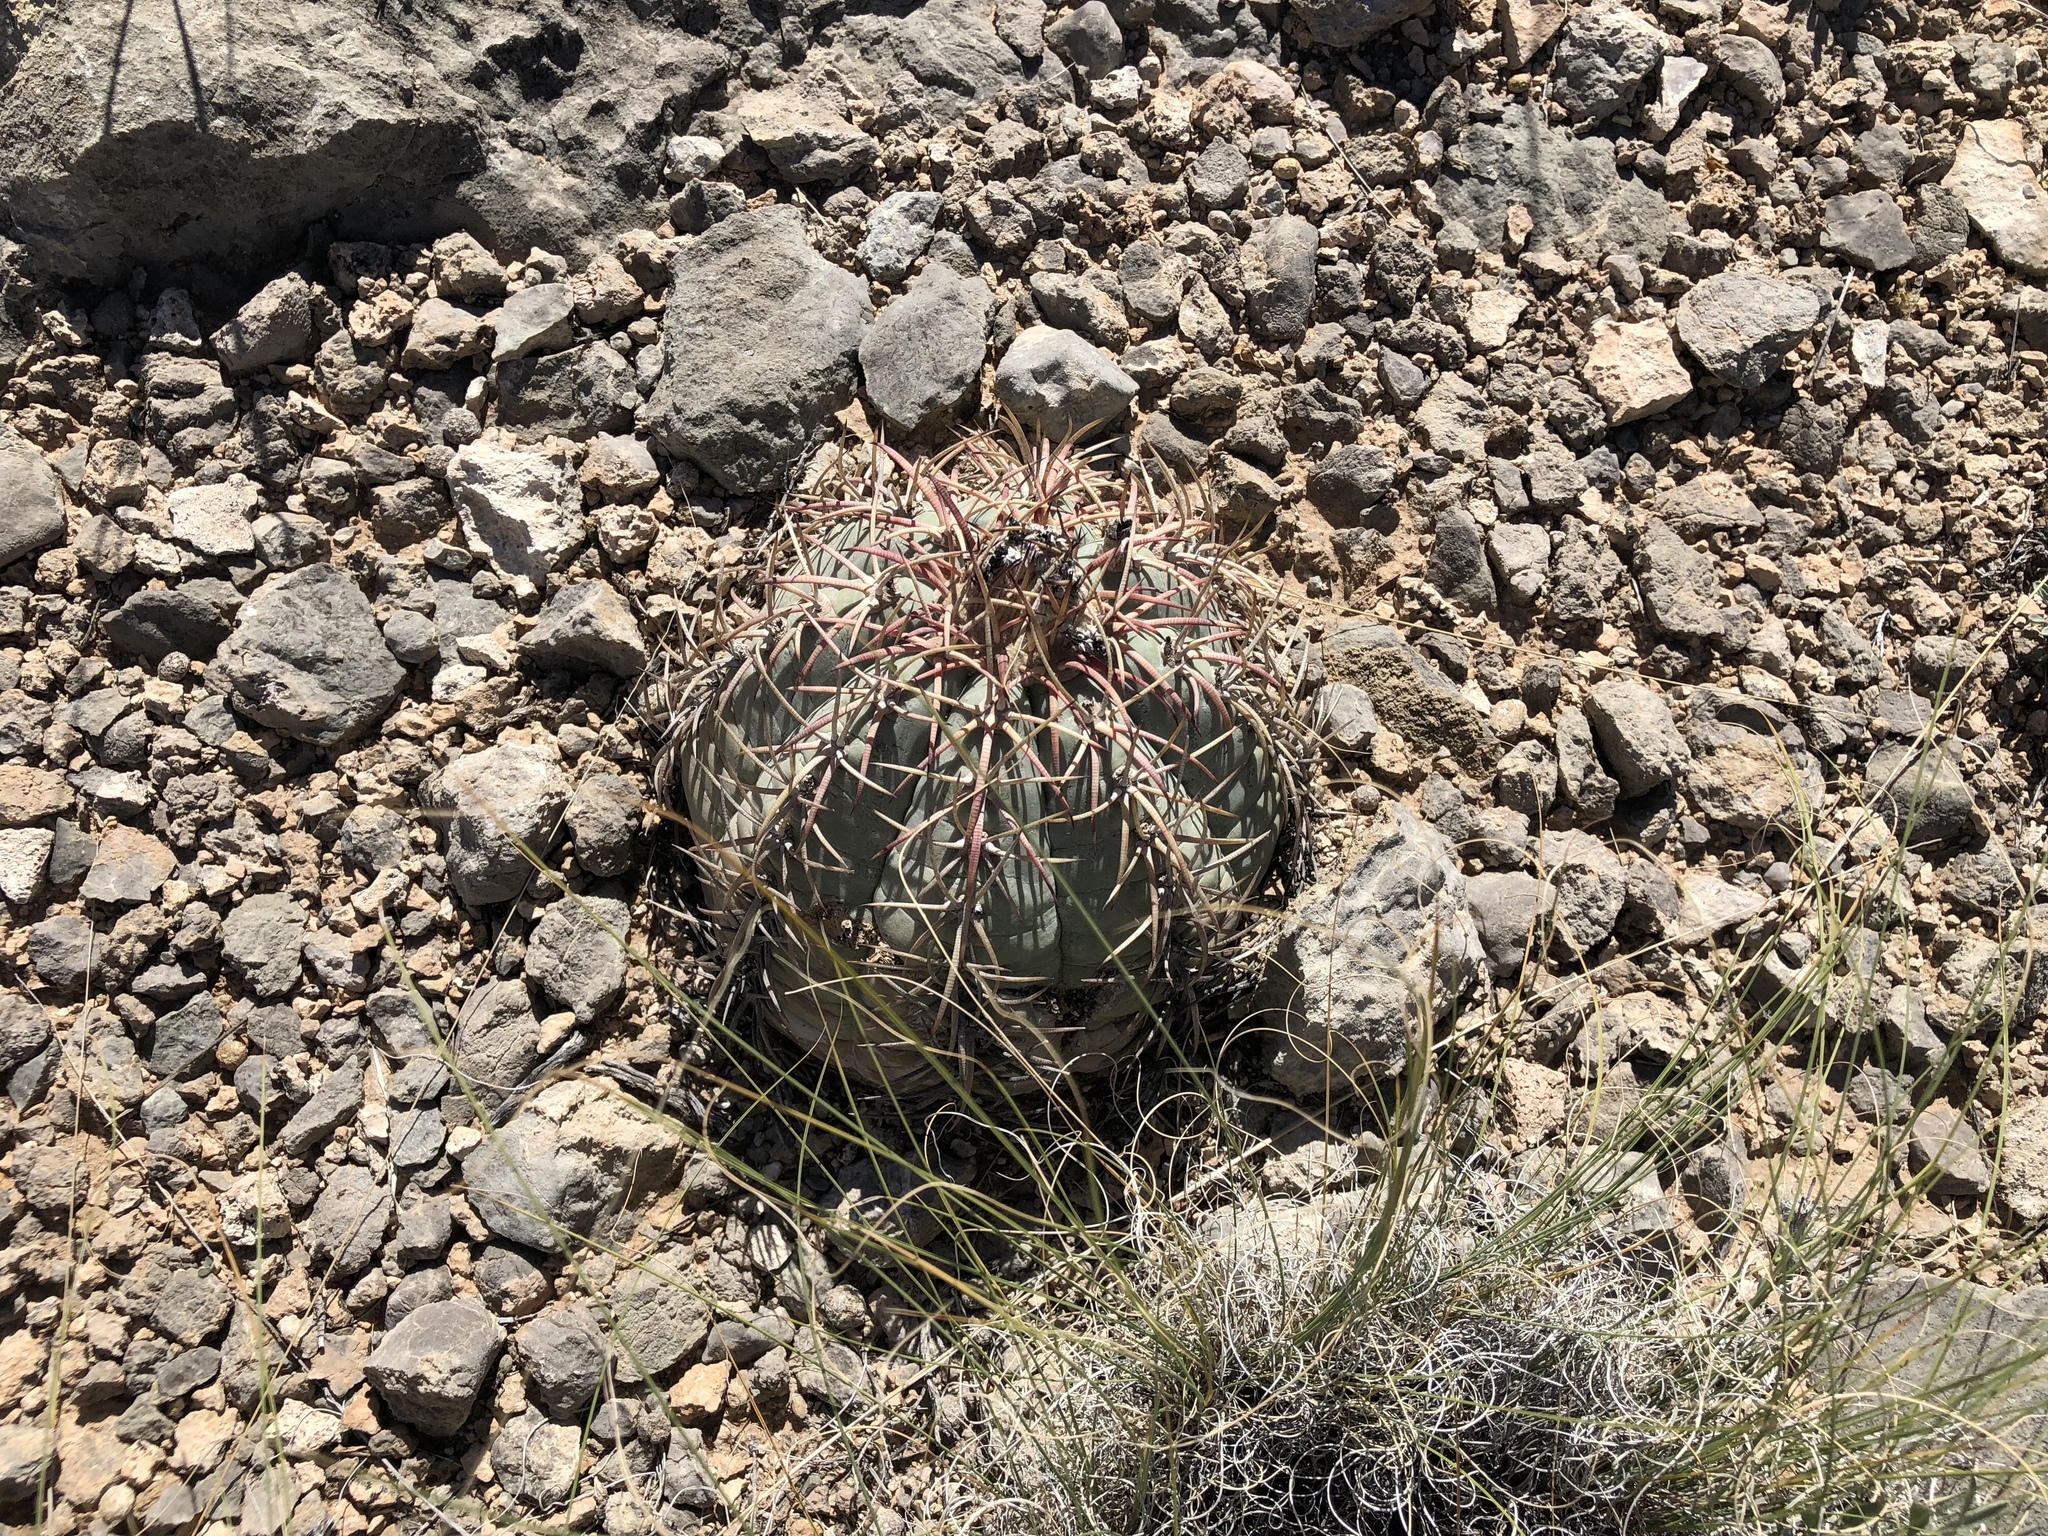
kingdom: Plantae
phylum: Tracheophyta
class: Magnoliopsida
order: Caryophyllales
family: Cactaceae
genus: Echinocactus
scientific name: Echinocactus horizonthalonius
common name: Devilshead
